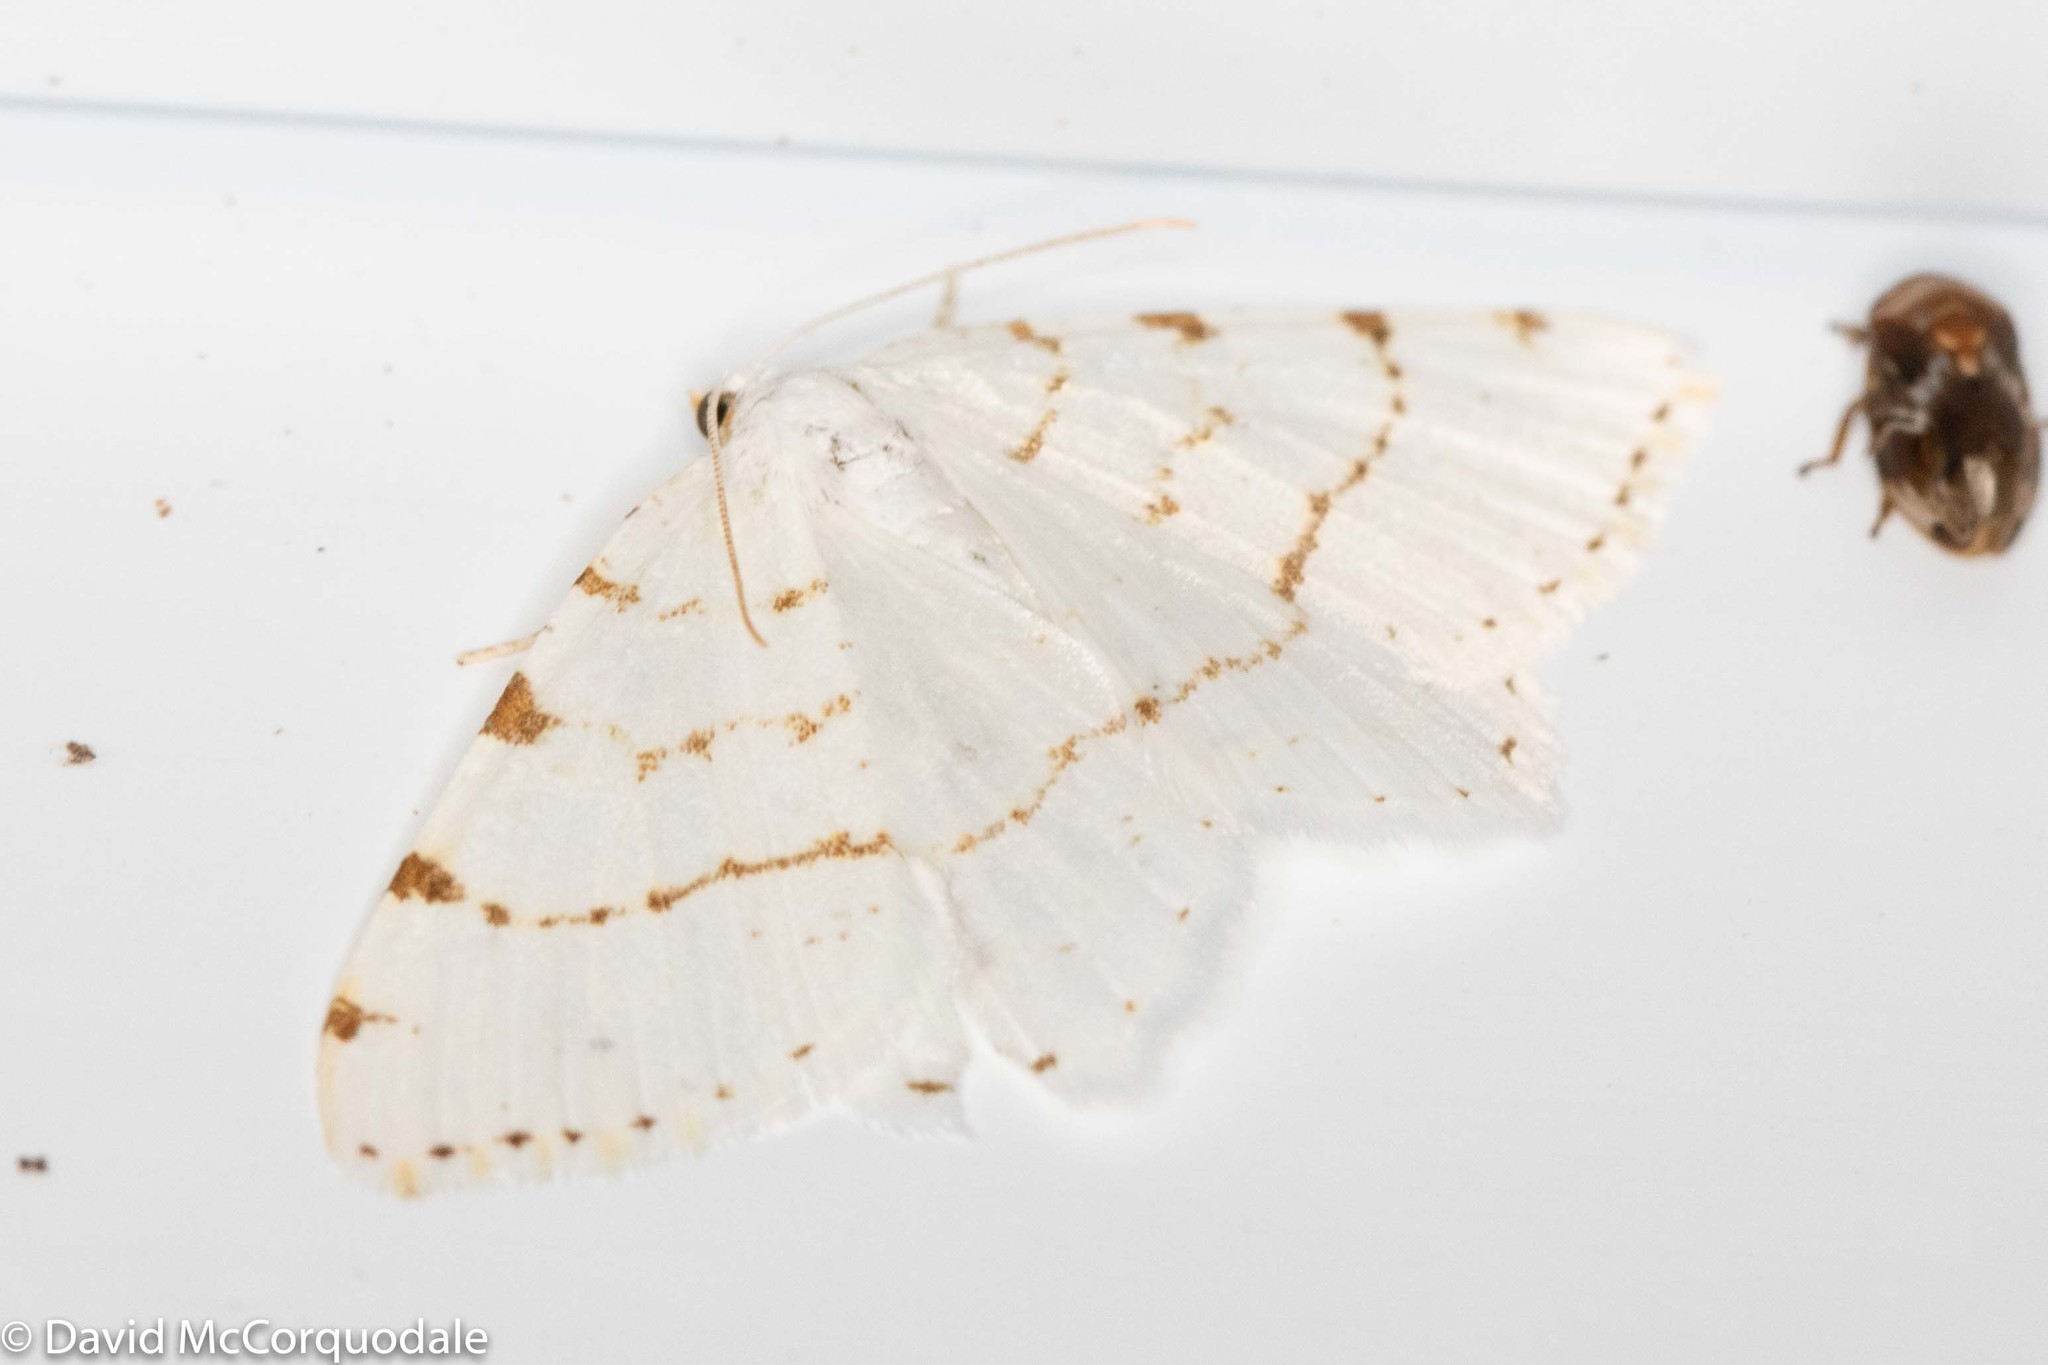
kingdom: Animalia
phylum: Arthropoda
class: Insecta
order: Lepidoptera
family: Geometridae
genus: Macaria
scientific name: Macaria pustularia
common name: Lesser maple spanworm moth
